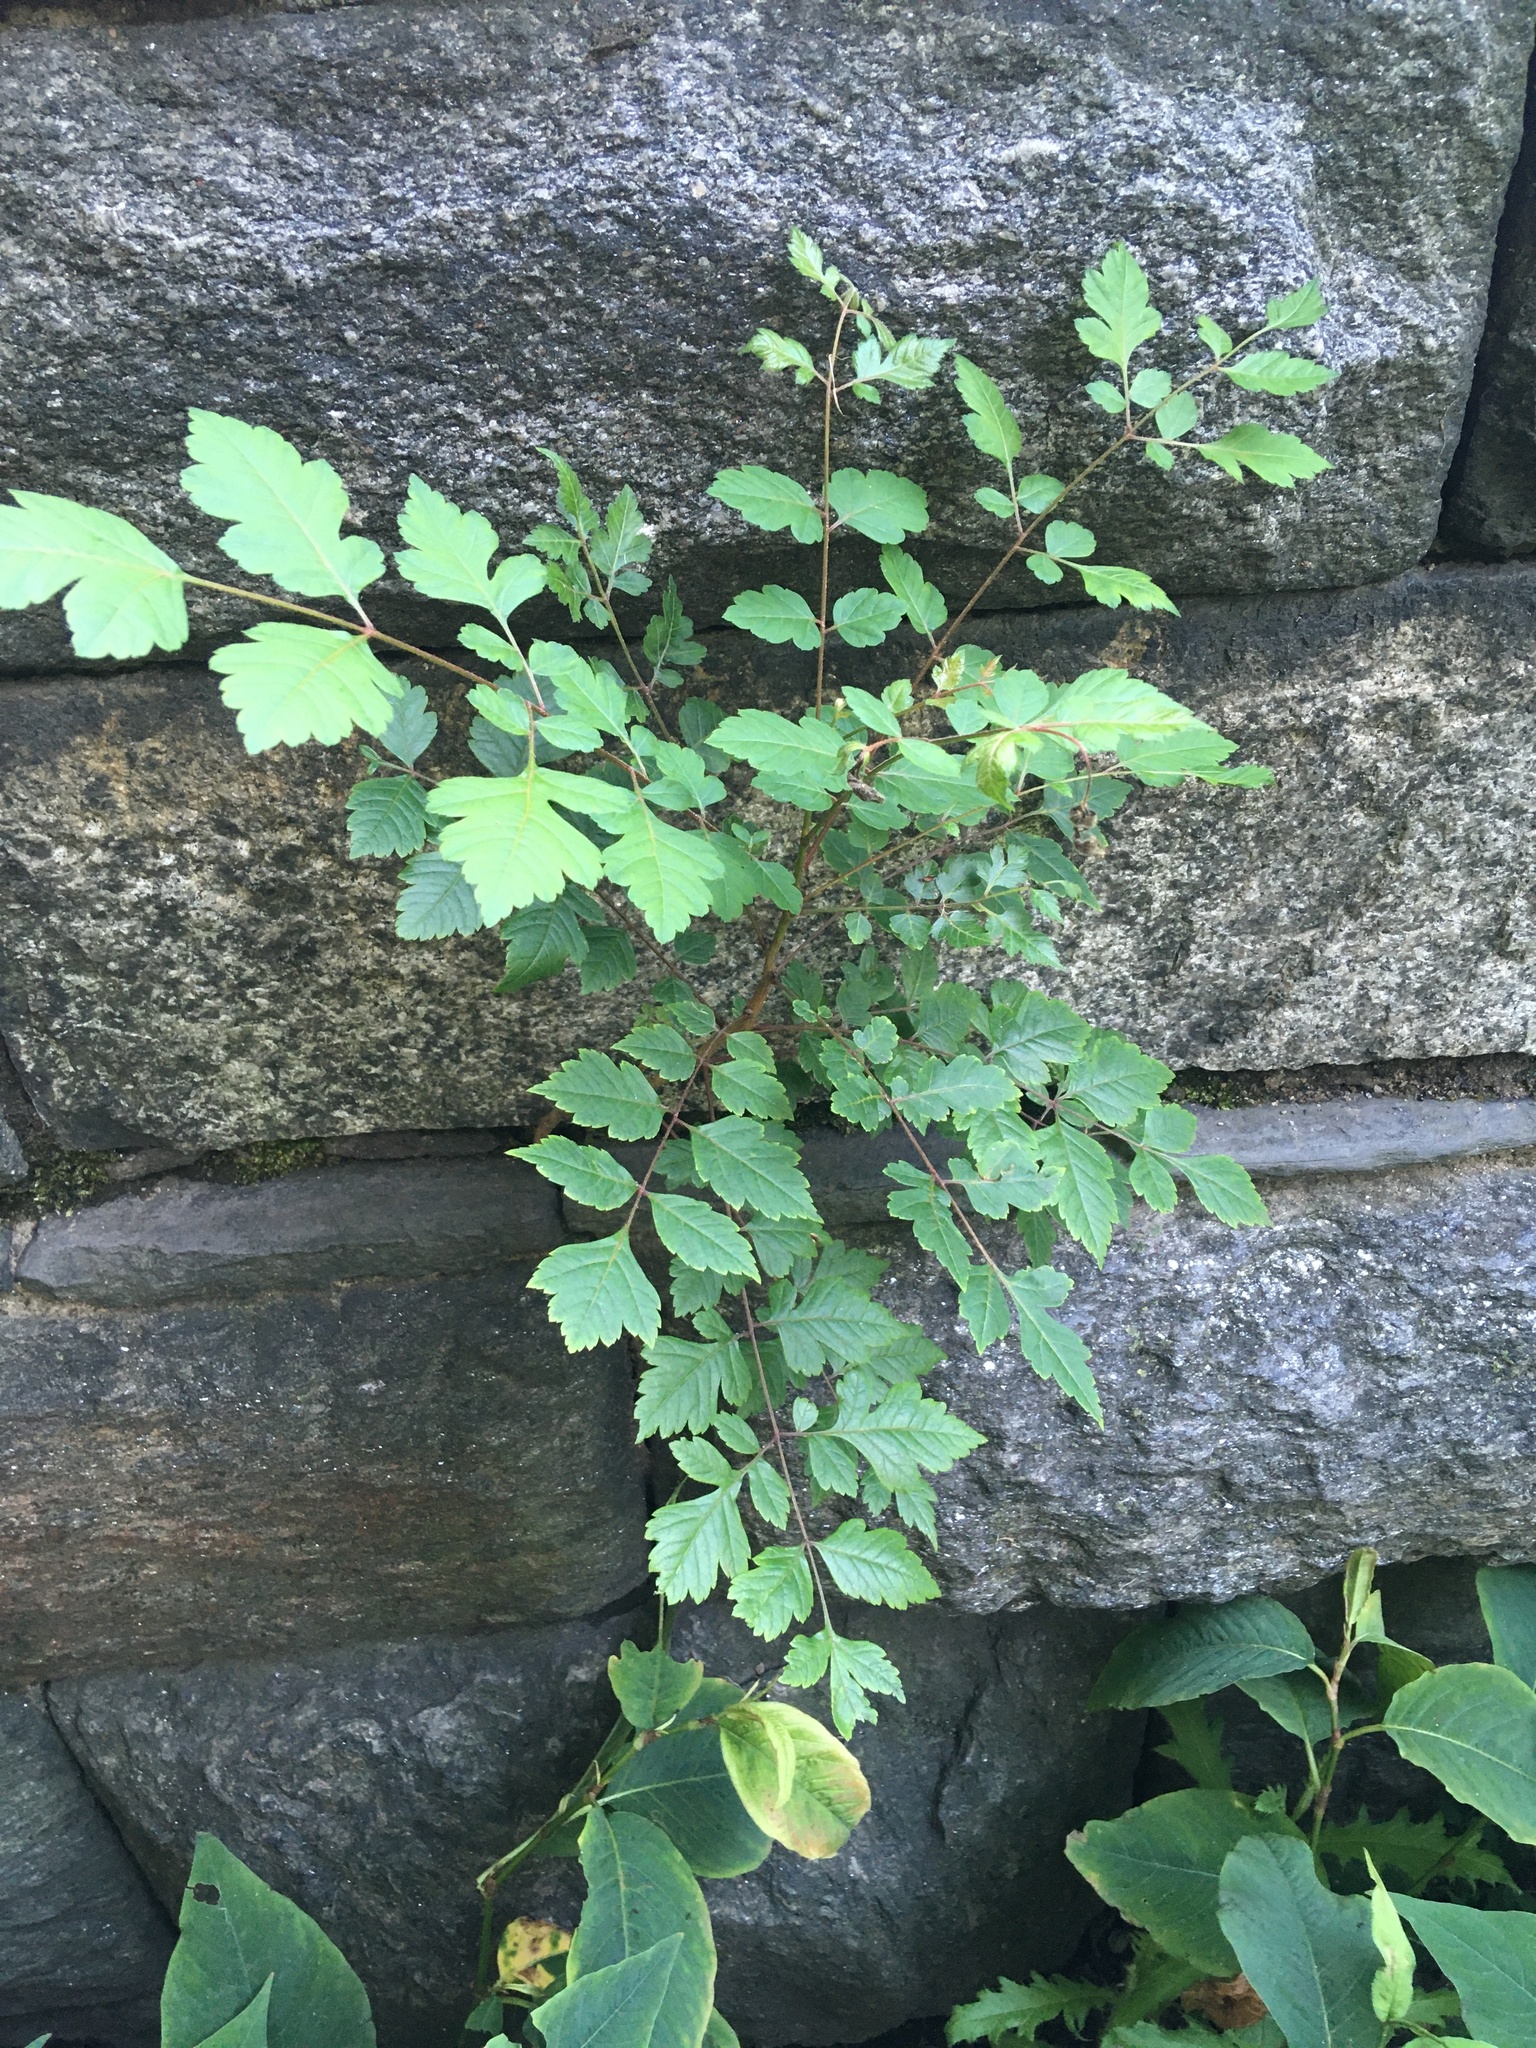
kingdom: Plantae
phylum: Tracheophyta
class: Magnoliopsida
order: Sapindales
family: Sapindaceae
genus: Koelreuteria
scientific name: Koelreuteria paniculata
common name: Pride-of-india
